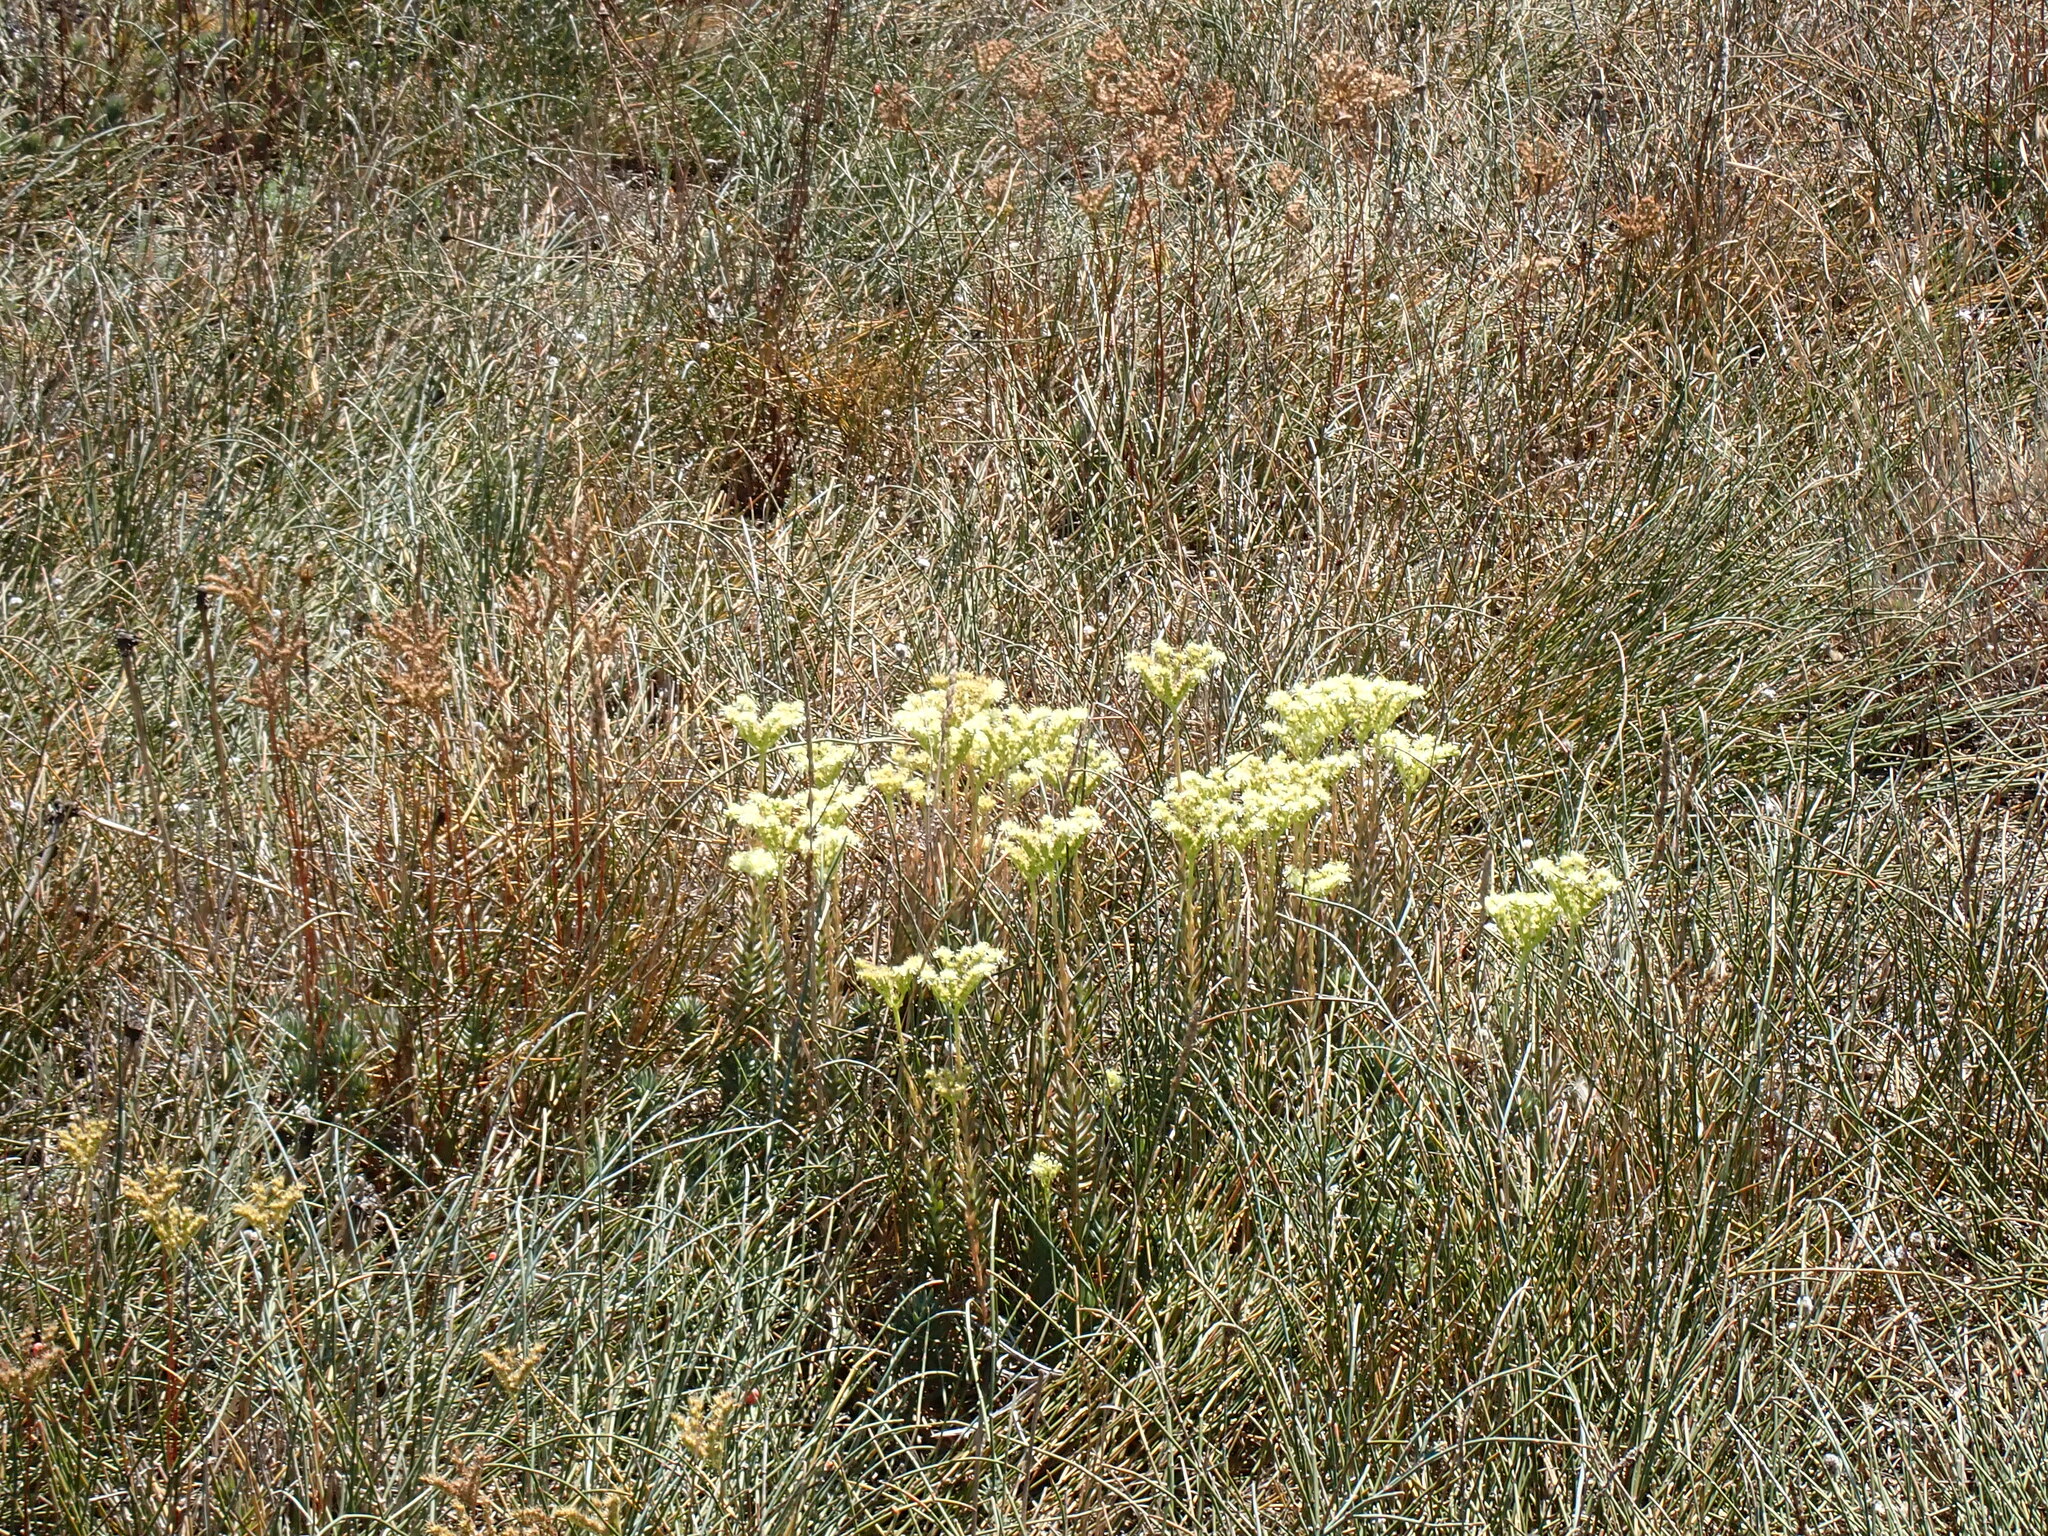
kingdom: Plantae
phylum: Tracheophyta
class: Magnoliopsida
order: Saxifragales
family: Crassulaceae
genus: Petrosedum
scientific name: Petrosedum sediforme
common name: Pale stonecrop
